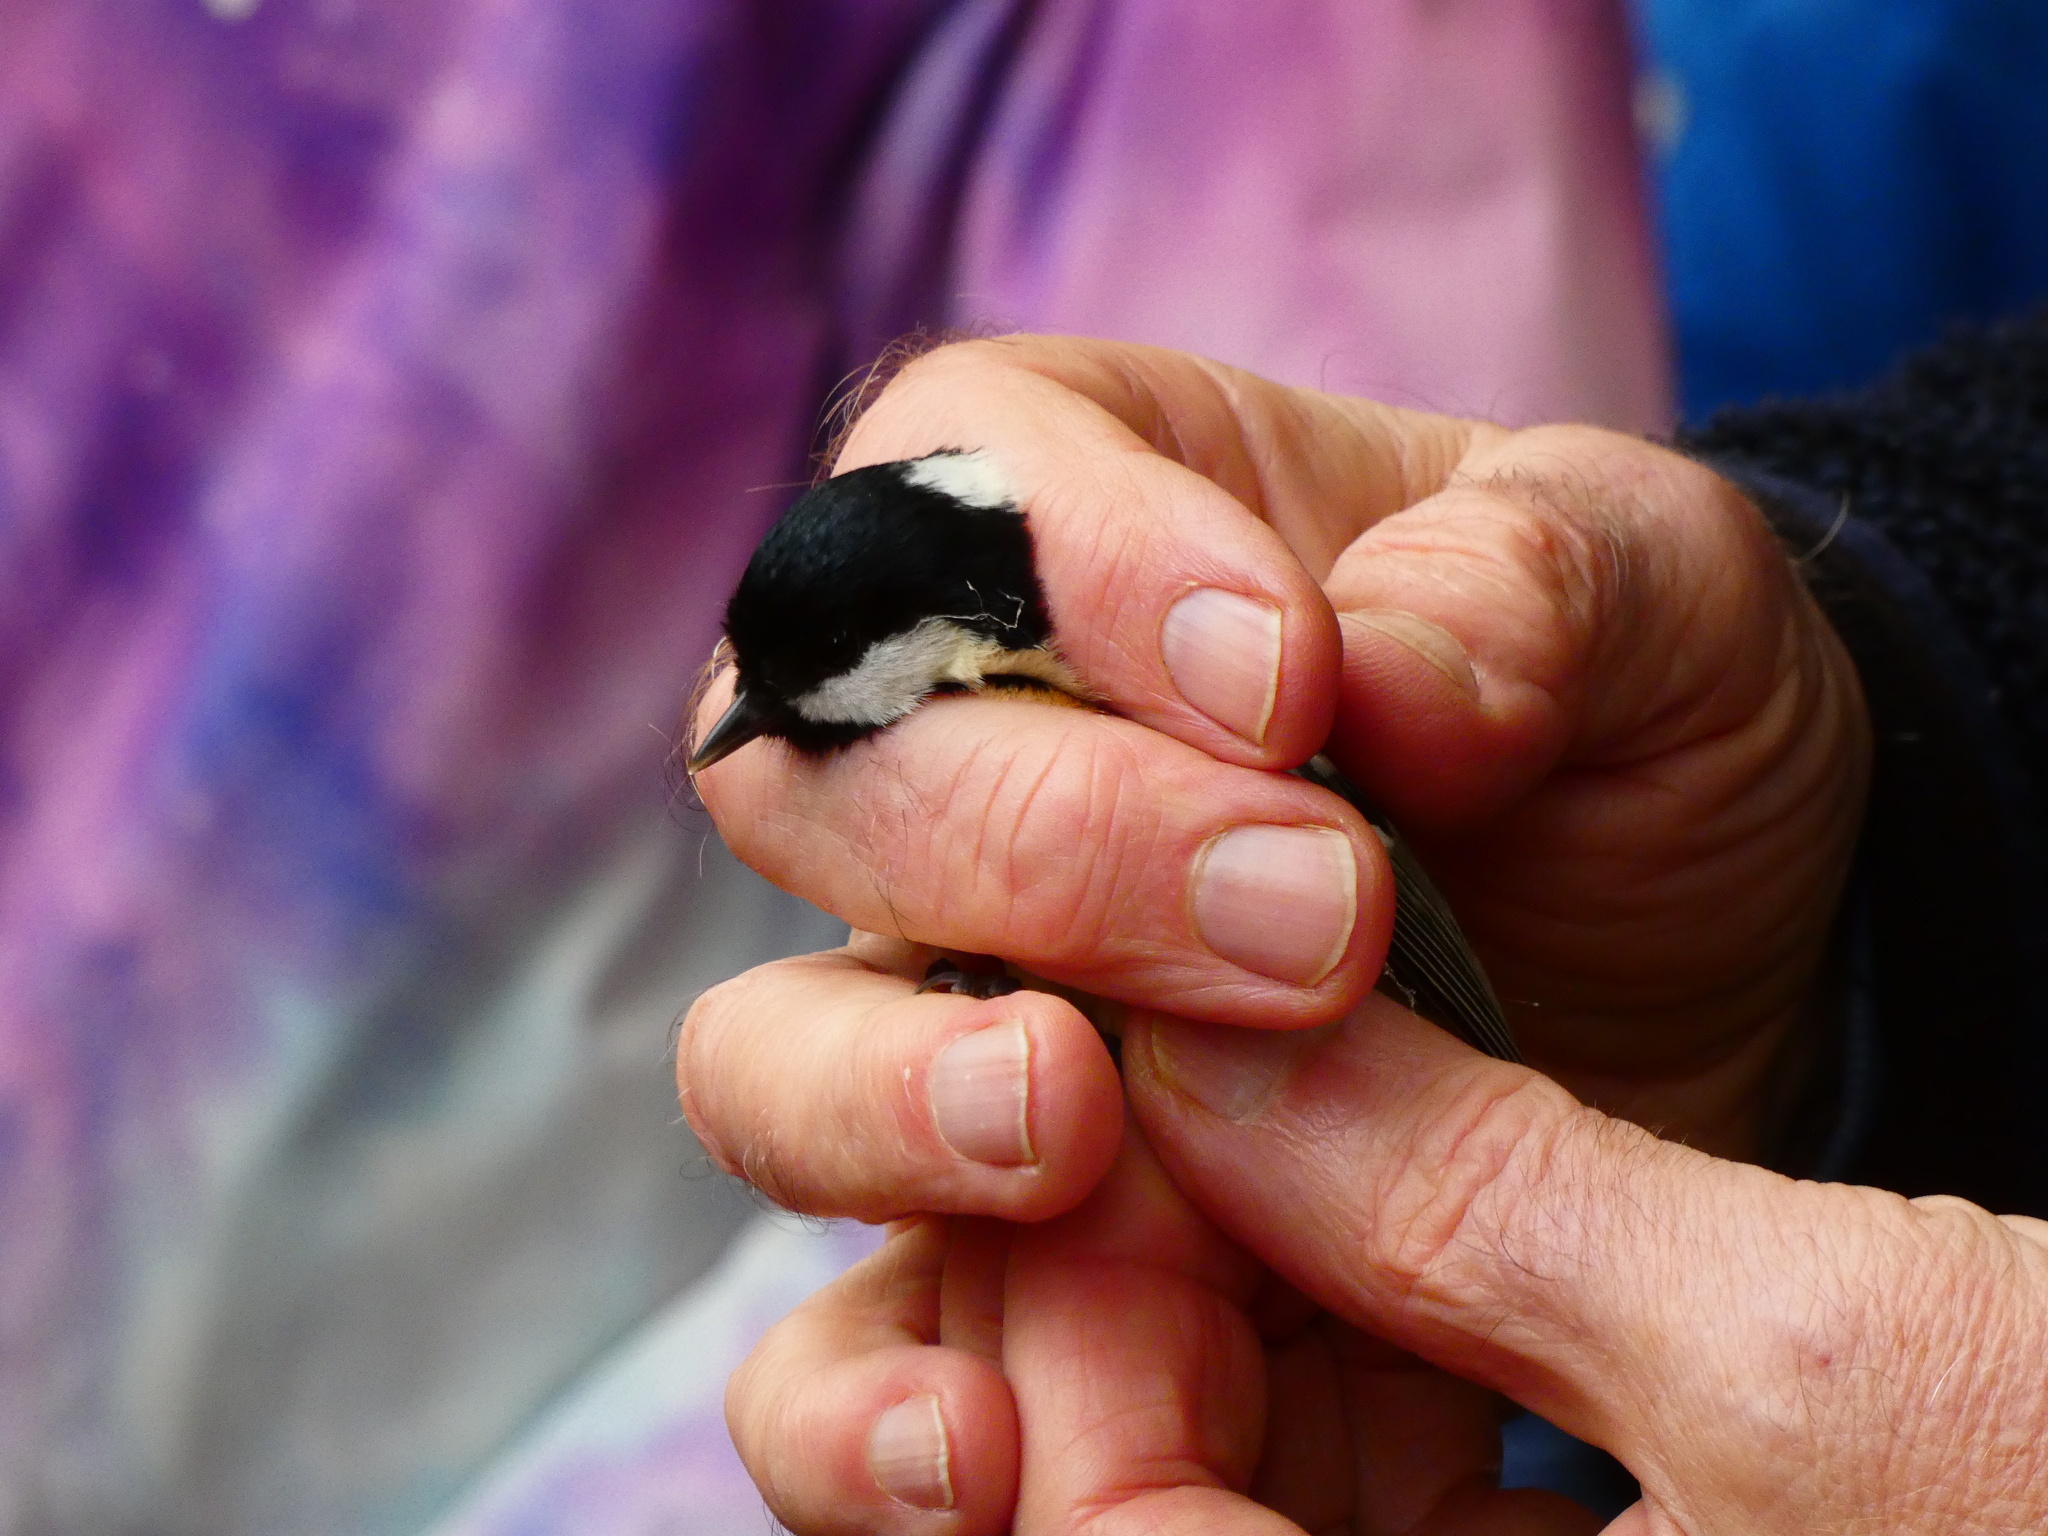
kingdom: Animalia
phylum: Chordata
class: Aves
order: Passeriformes
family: Paridae
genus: Periparus
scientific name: Periparus ater
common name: Coal tit
